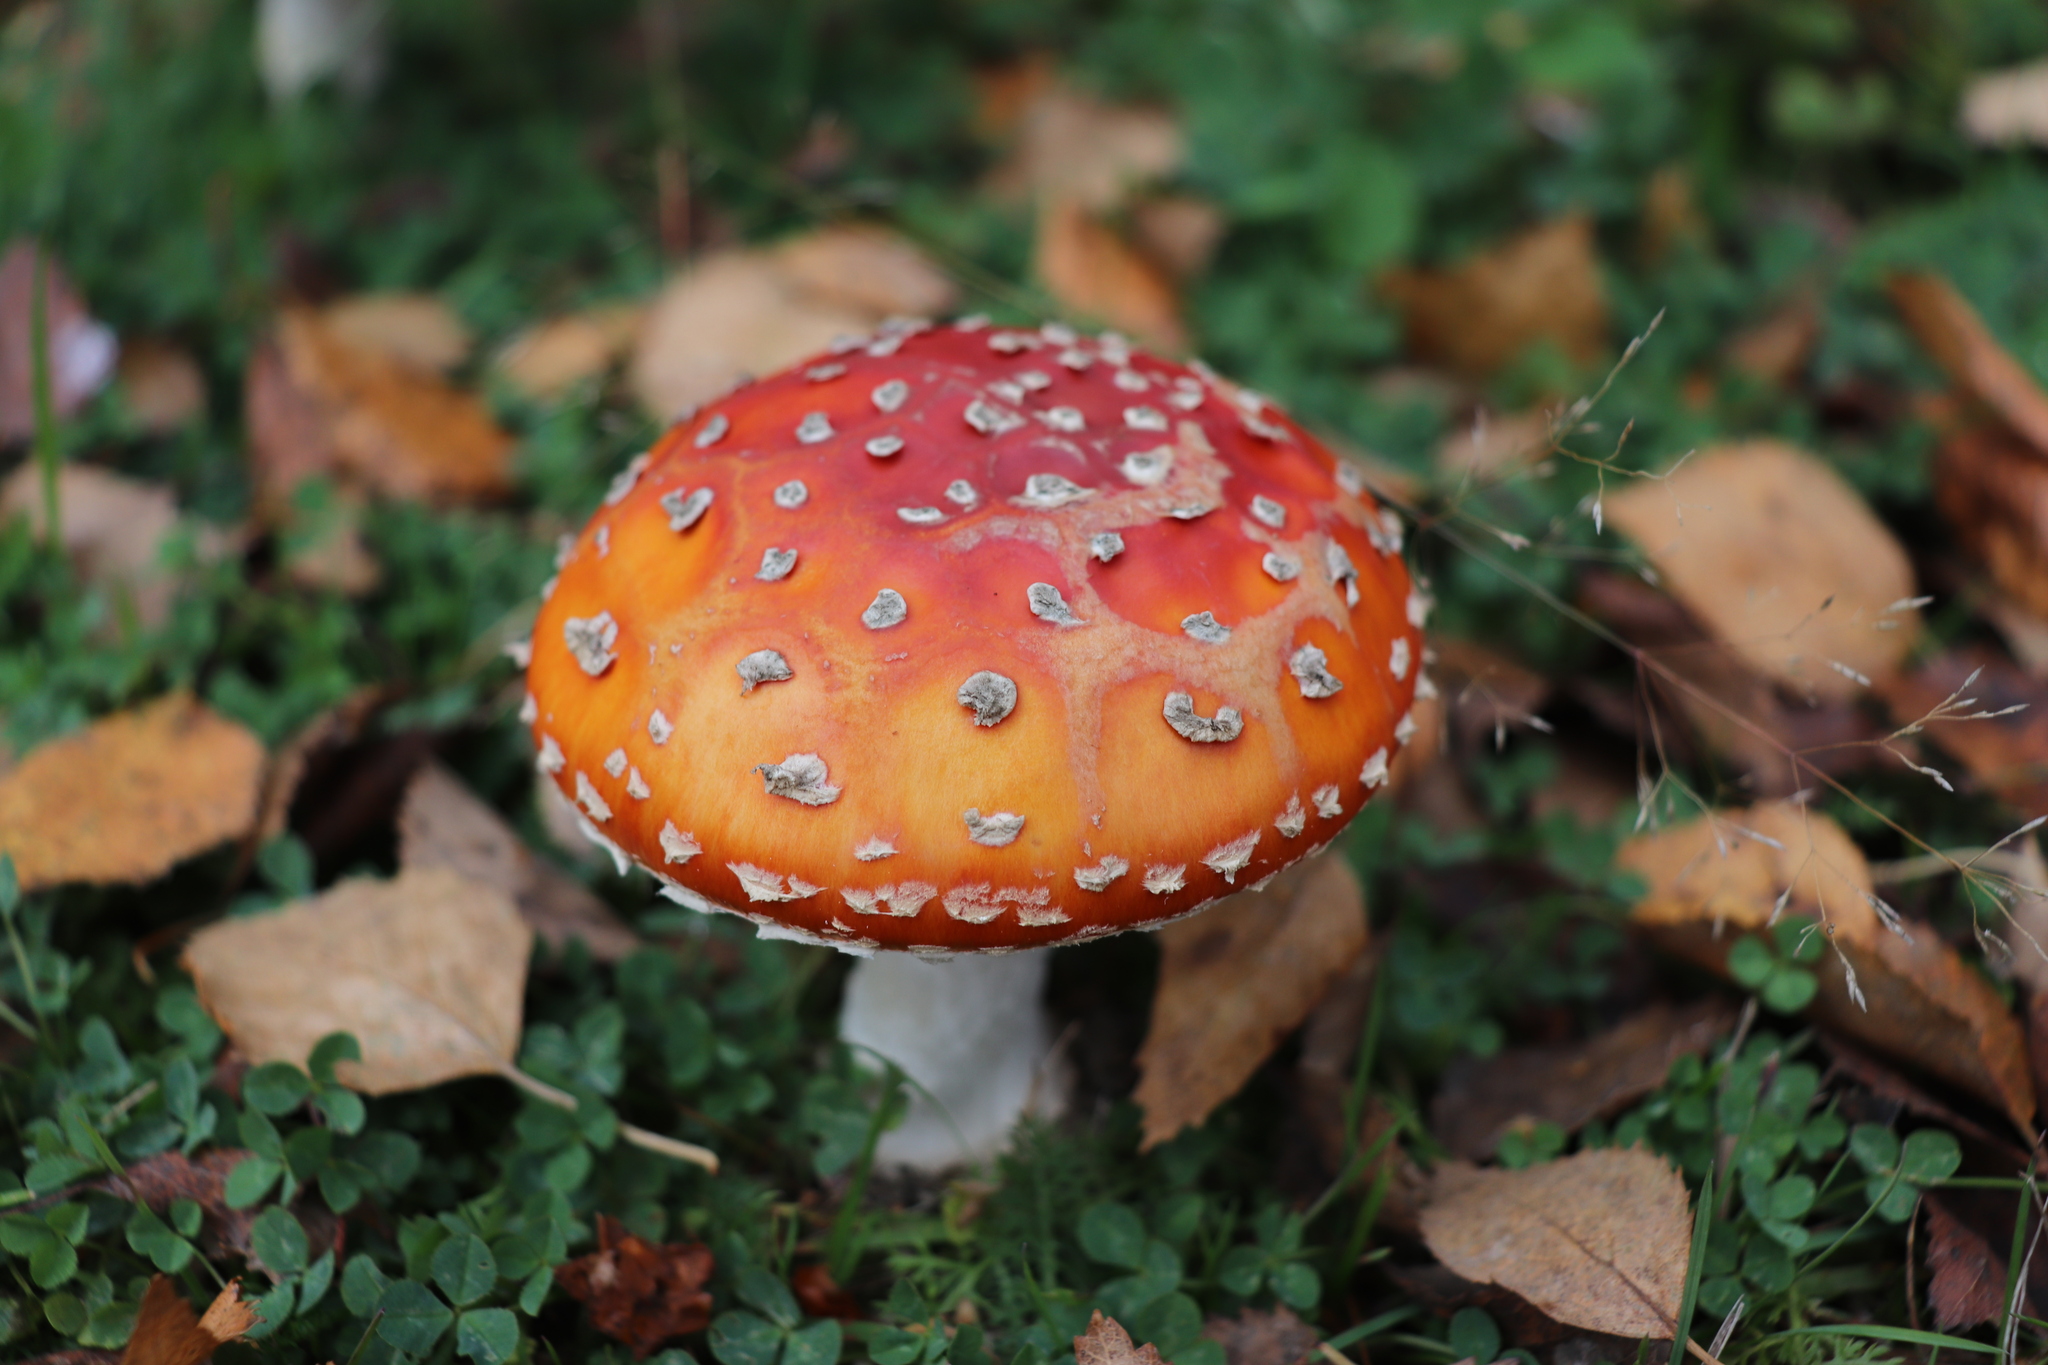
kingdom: Fungi
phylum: Basidiomycota
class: Agaricomycetes
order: Agaricales
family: Amanitaceae
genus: Amanita
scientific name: Amanita muscaria
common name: Fly agaric
